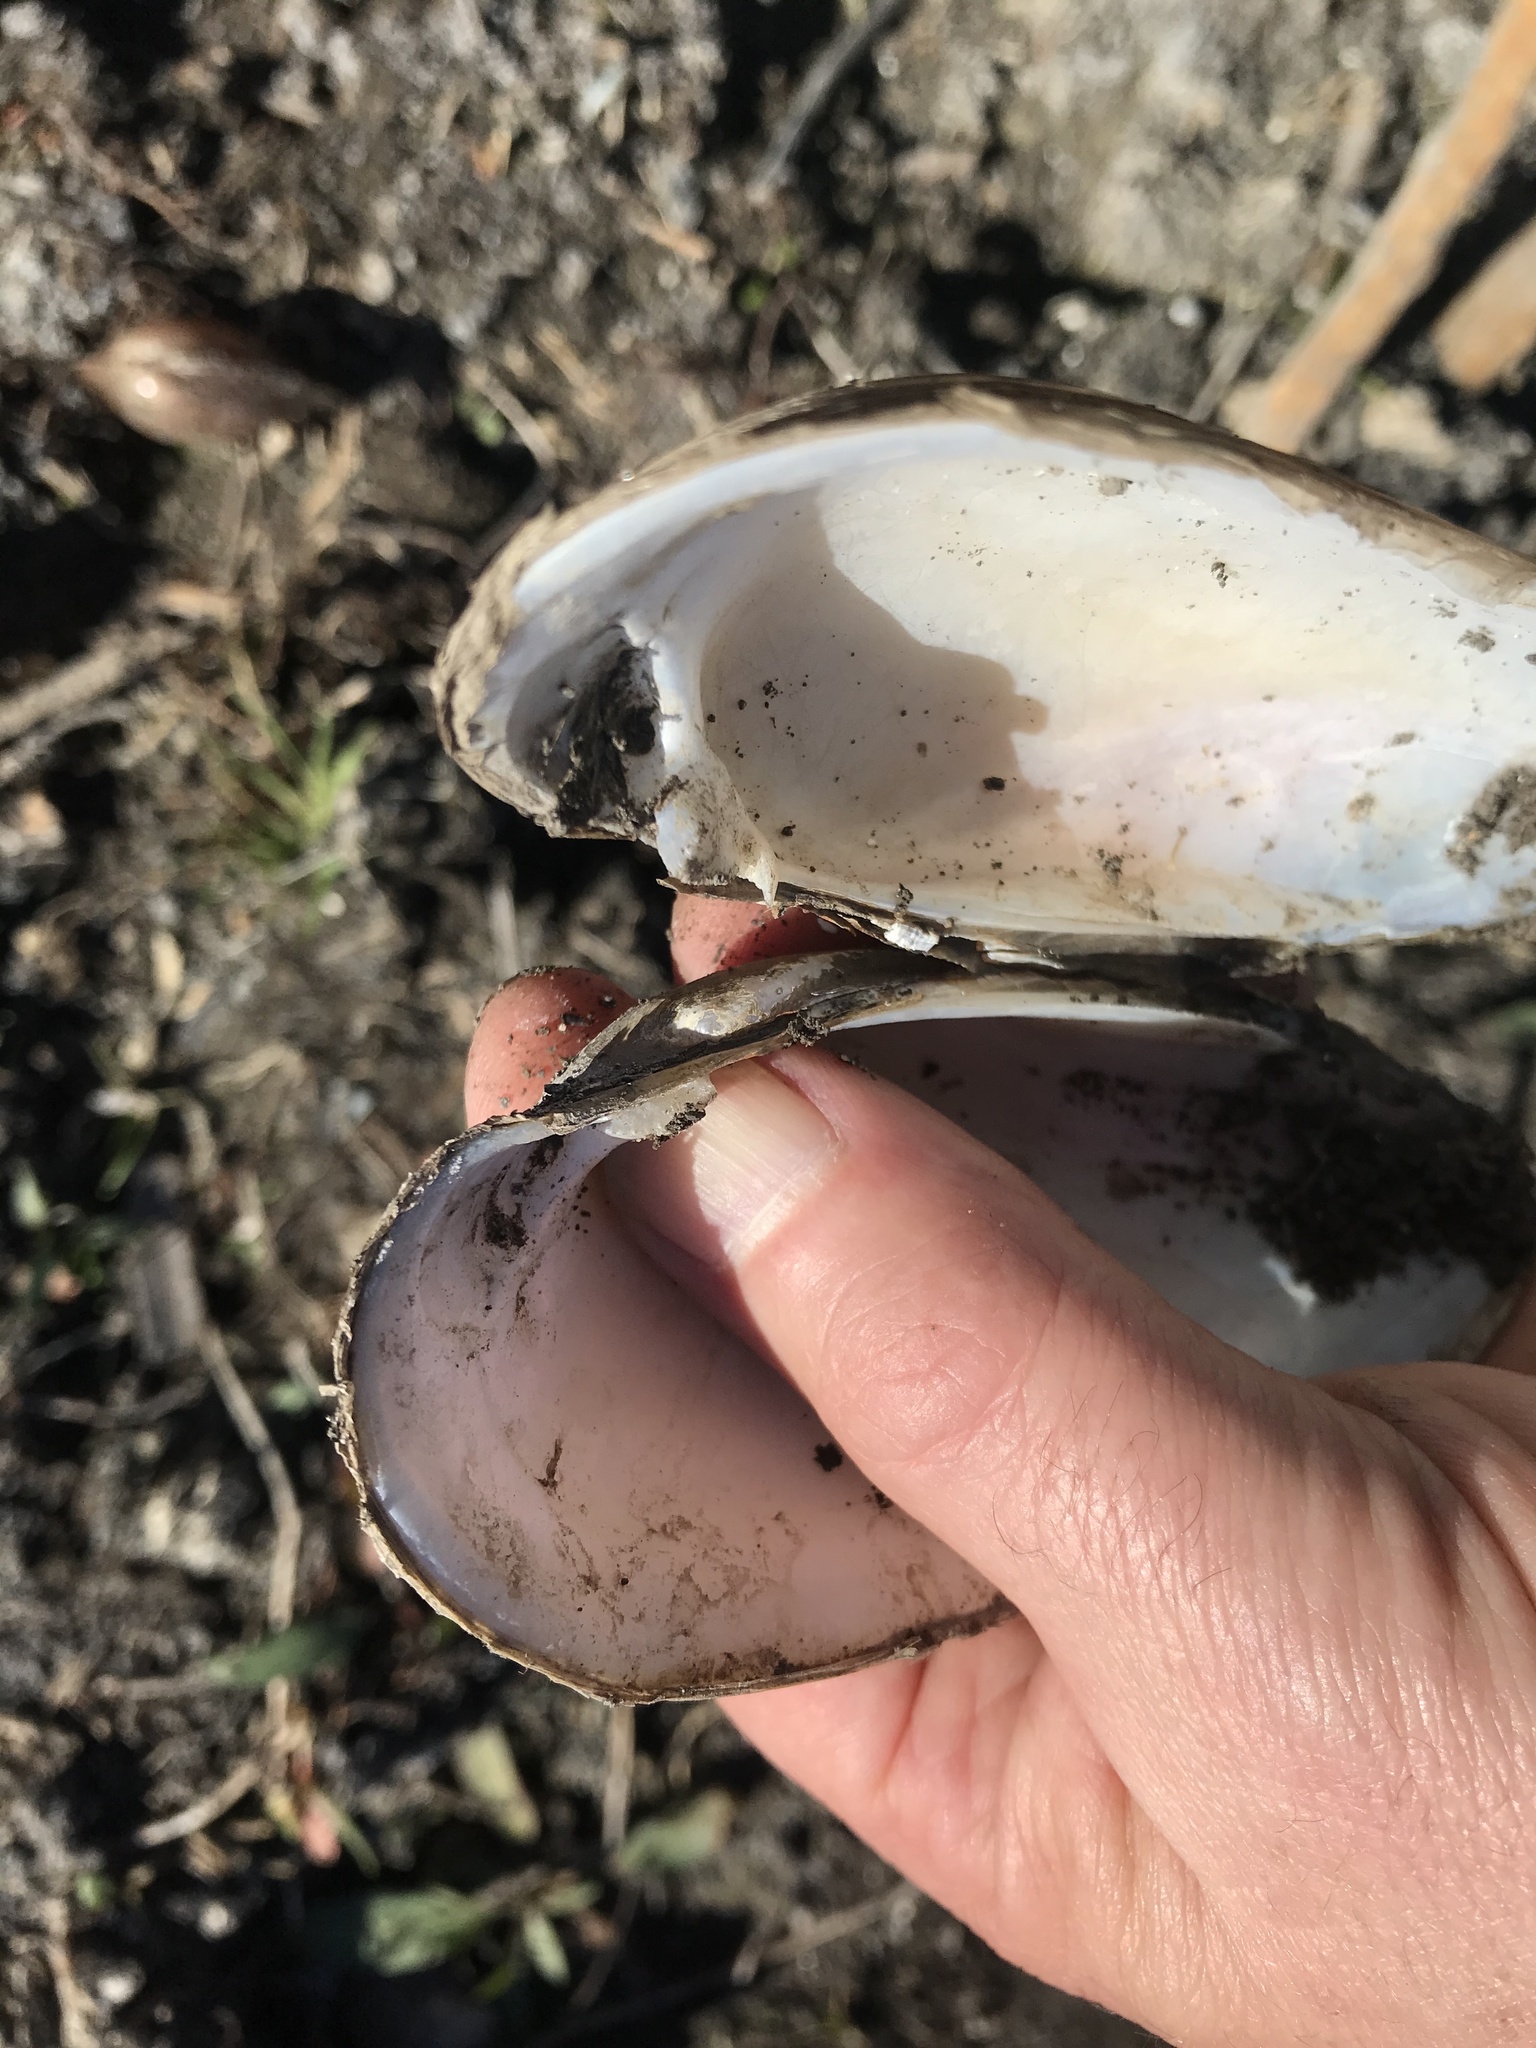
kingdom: Animalia
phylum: Mollusca
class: Bivalvia
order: Unionida
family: Unionidae
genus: Lampsilis
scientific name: Lampsilis teres
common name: Yellow sandshell
